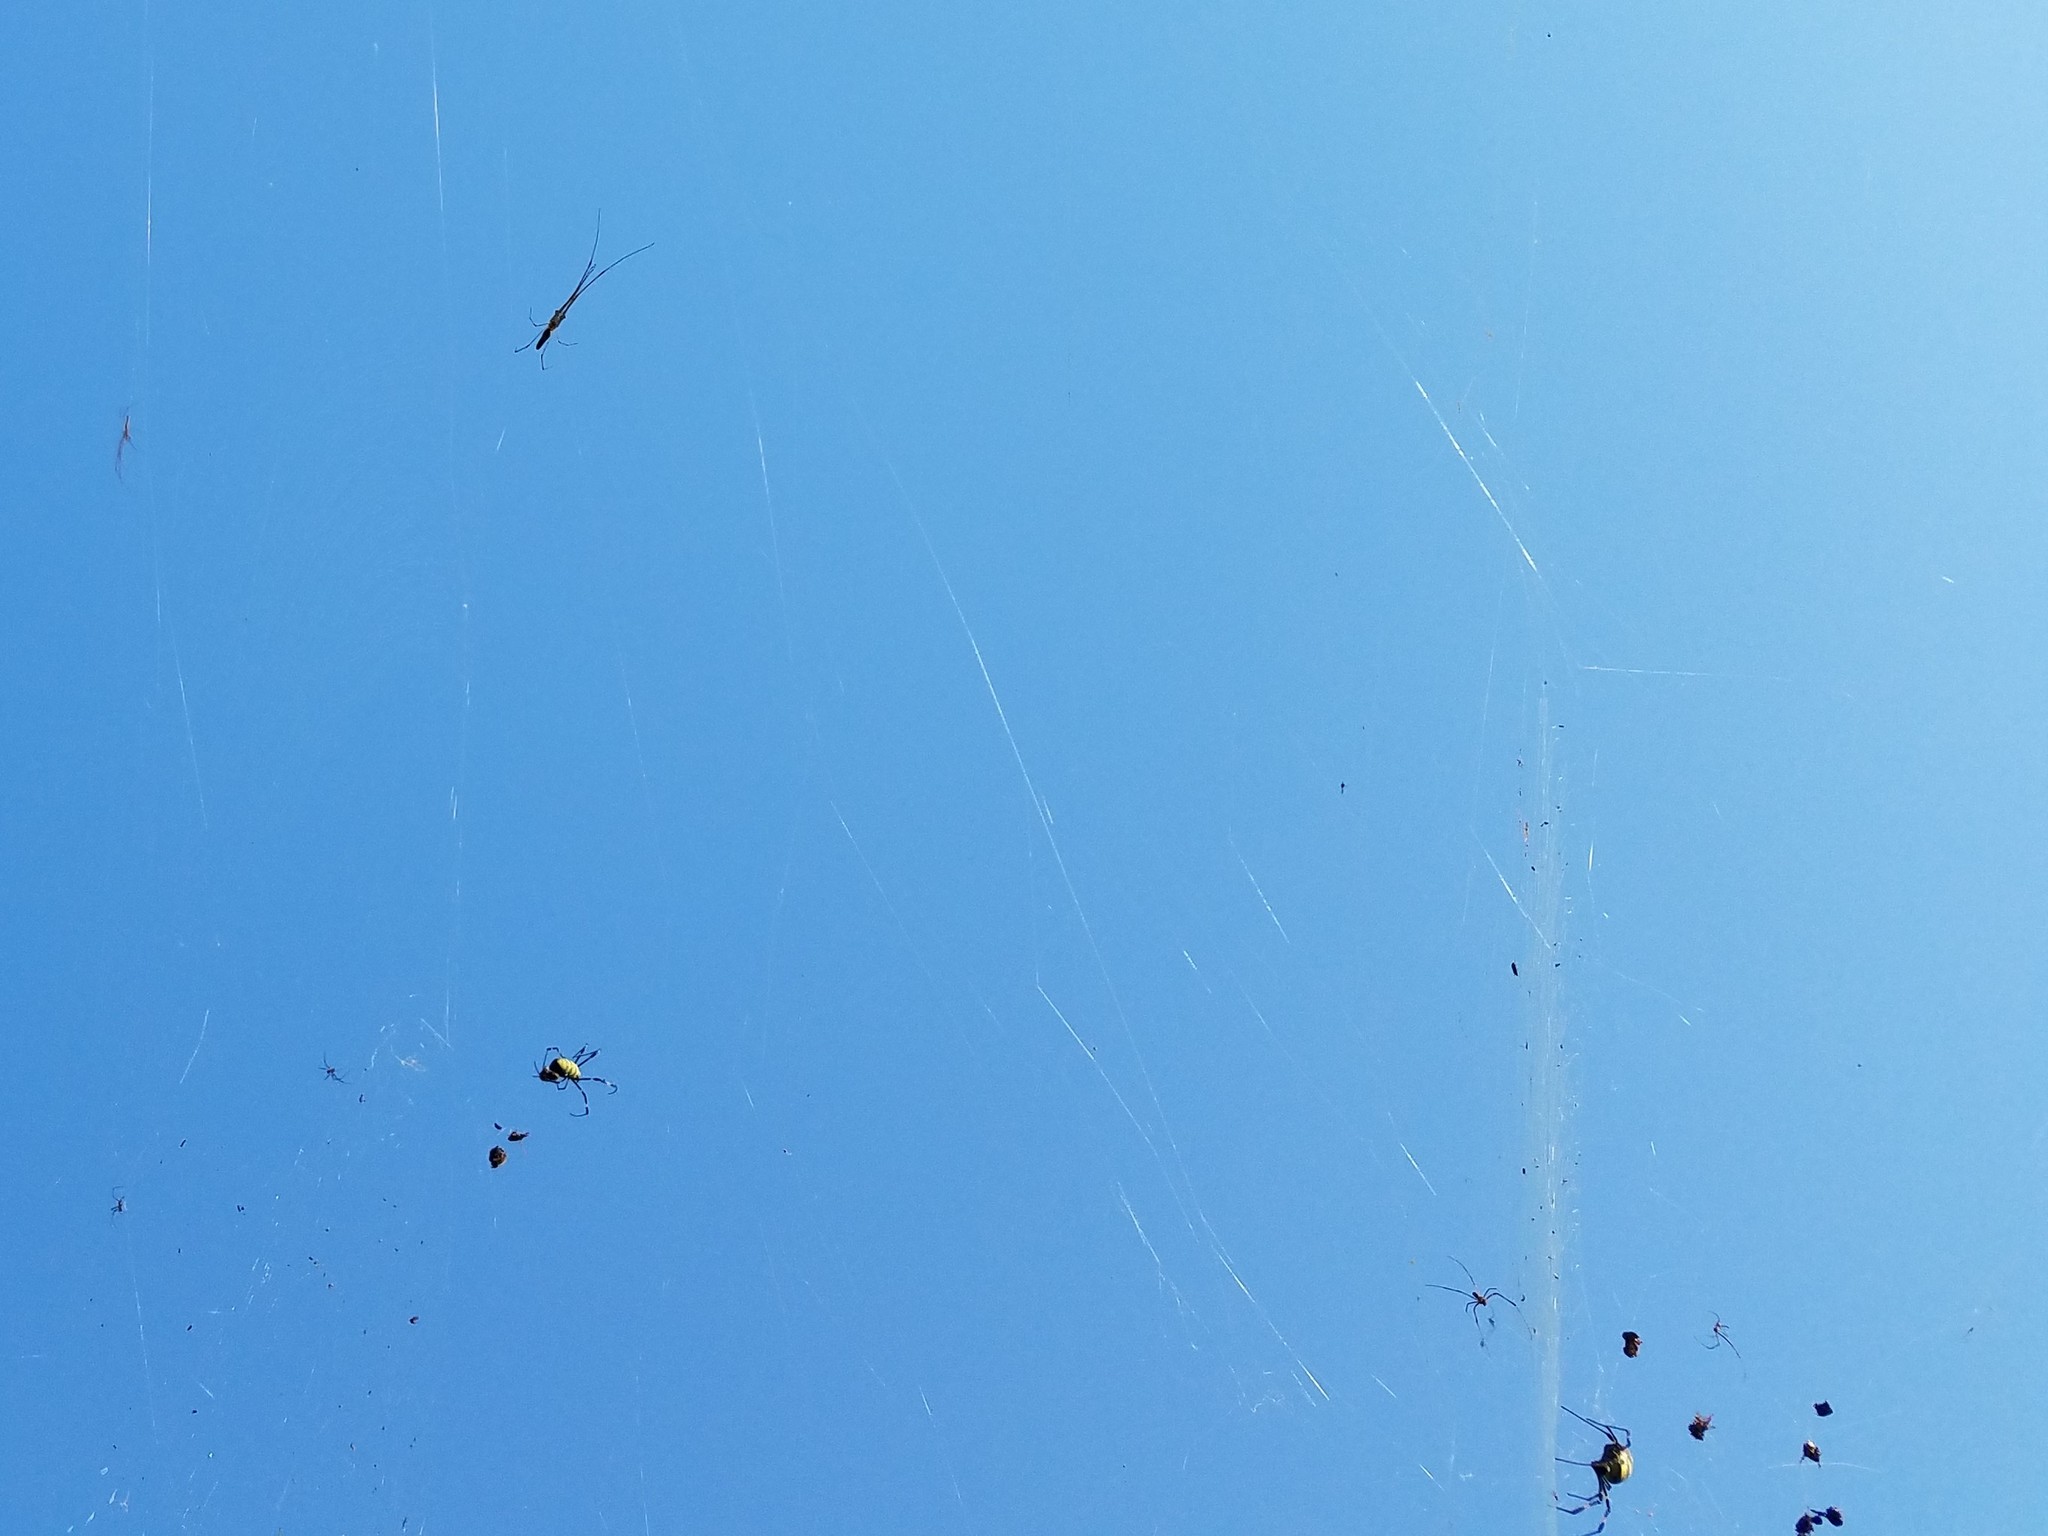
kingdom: Animalia
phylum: Arthropoda
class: Arachnida
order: Araneae
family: Araneidae
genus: Trichonephila
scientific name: Trichonephila clavata
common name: Jorō spider
